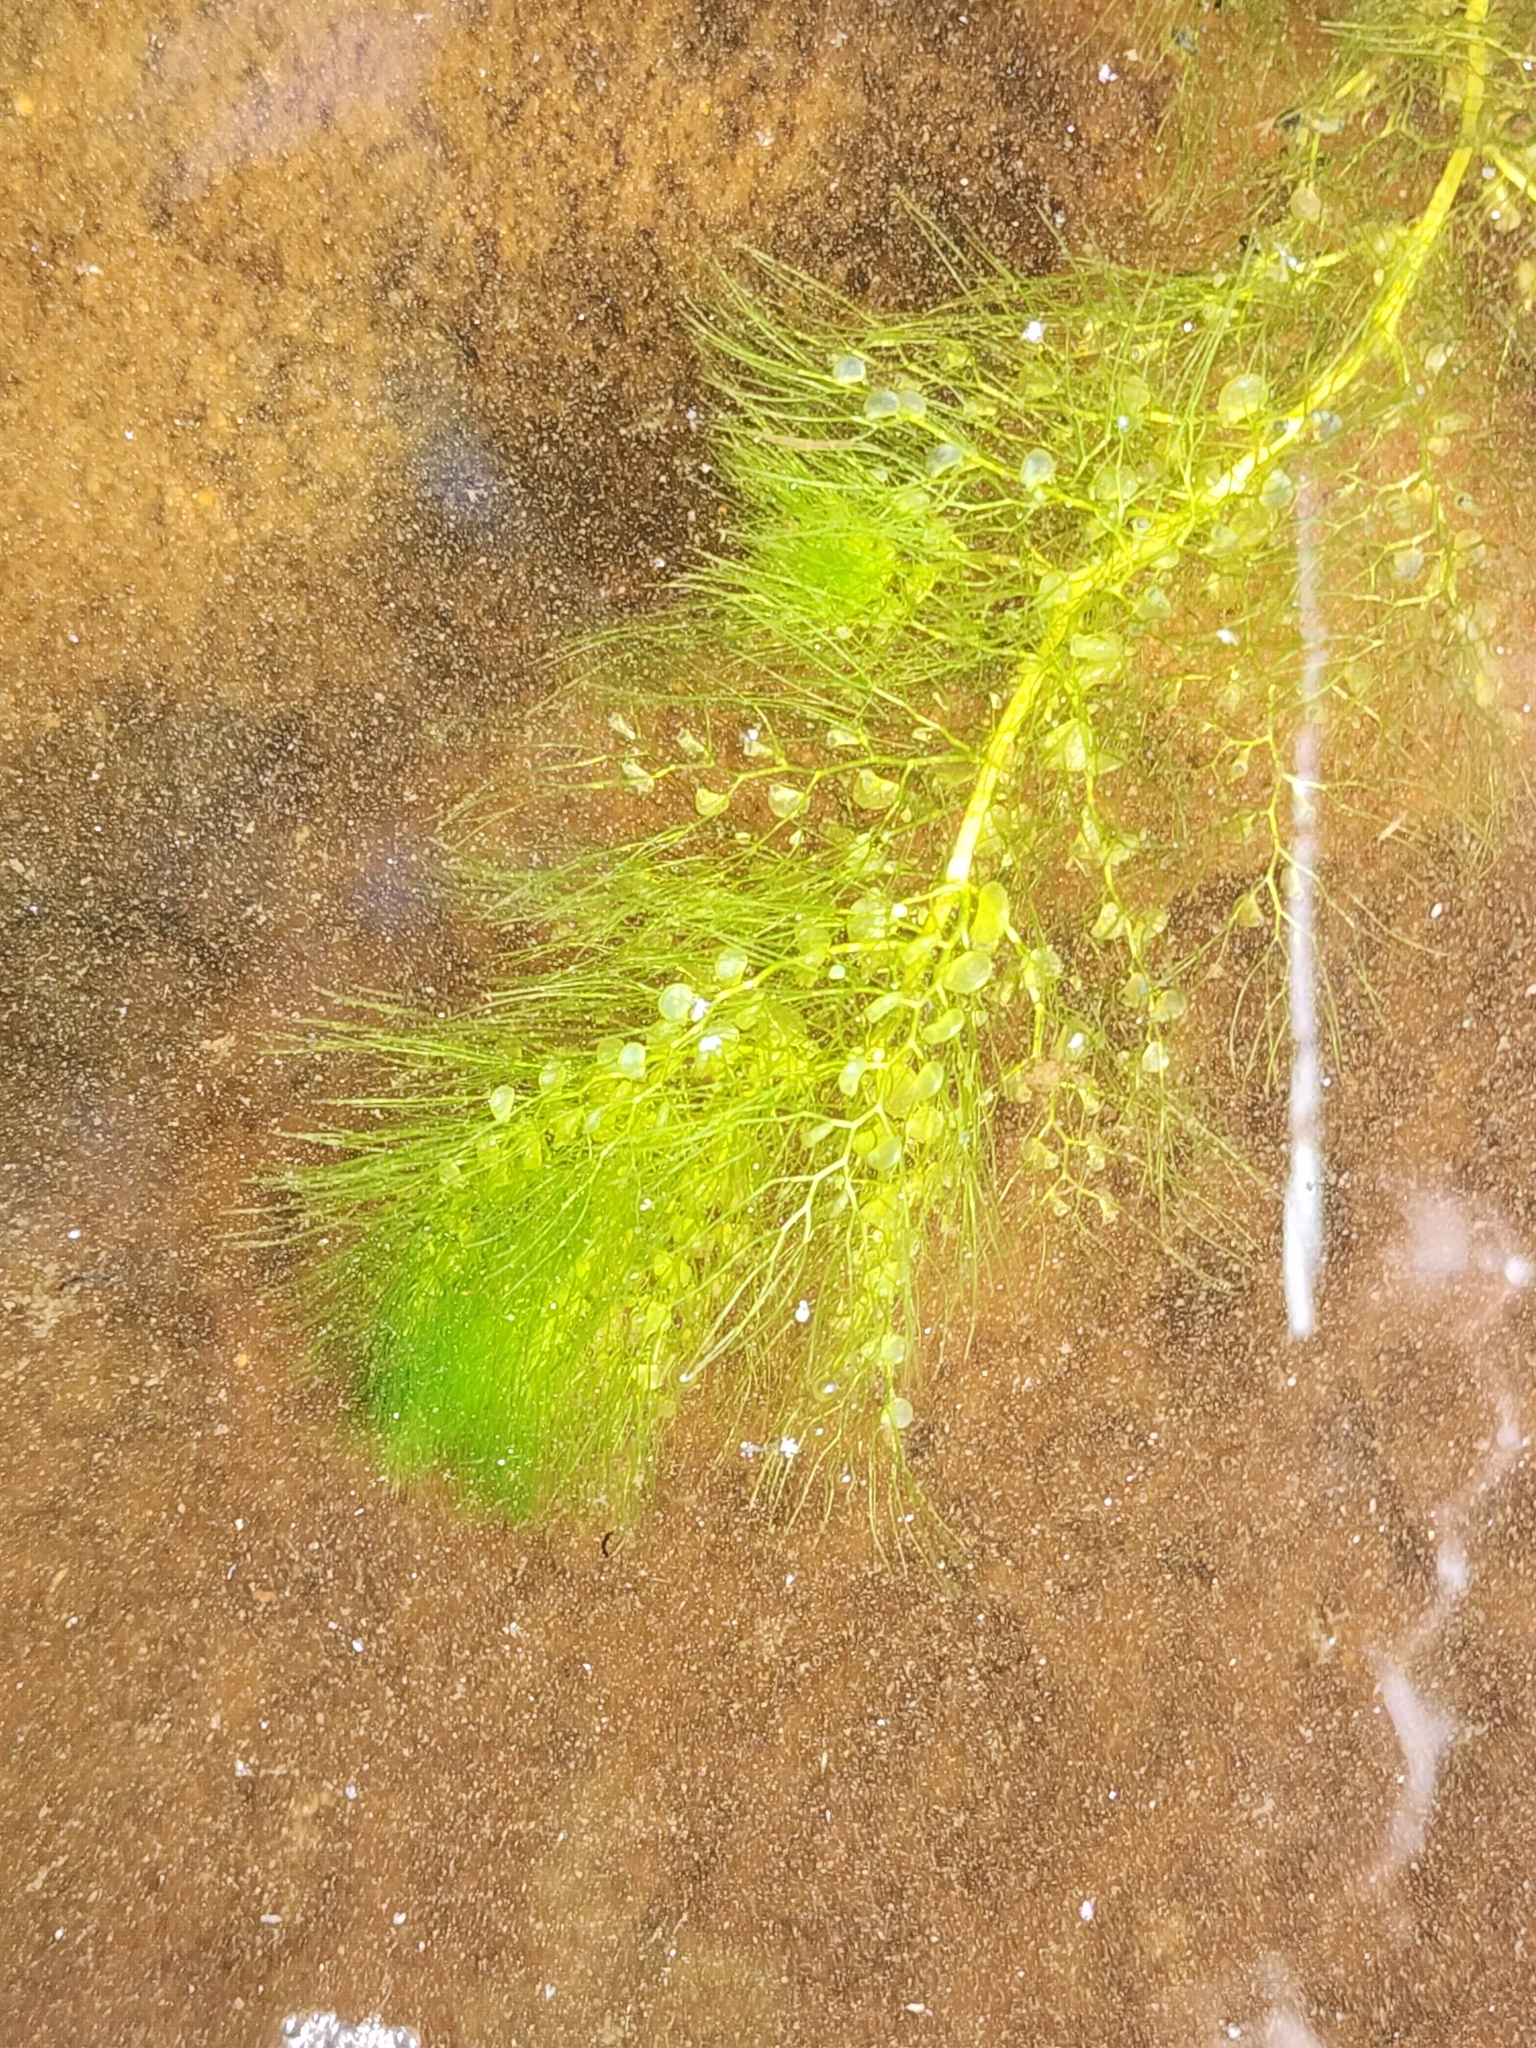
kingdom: Plantae
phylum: Tracheophyta
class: Magnoliopsida
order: Lamiales
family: Lentibulariaceae
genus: Utricularia
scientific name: Utricularia macrorhiza
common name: Common bladderwort
